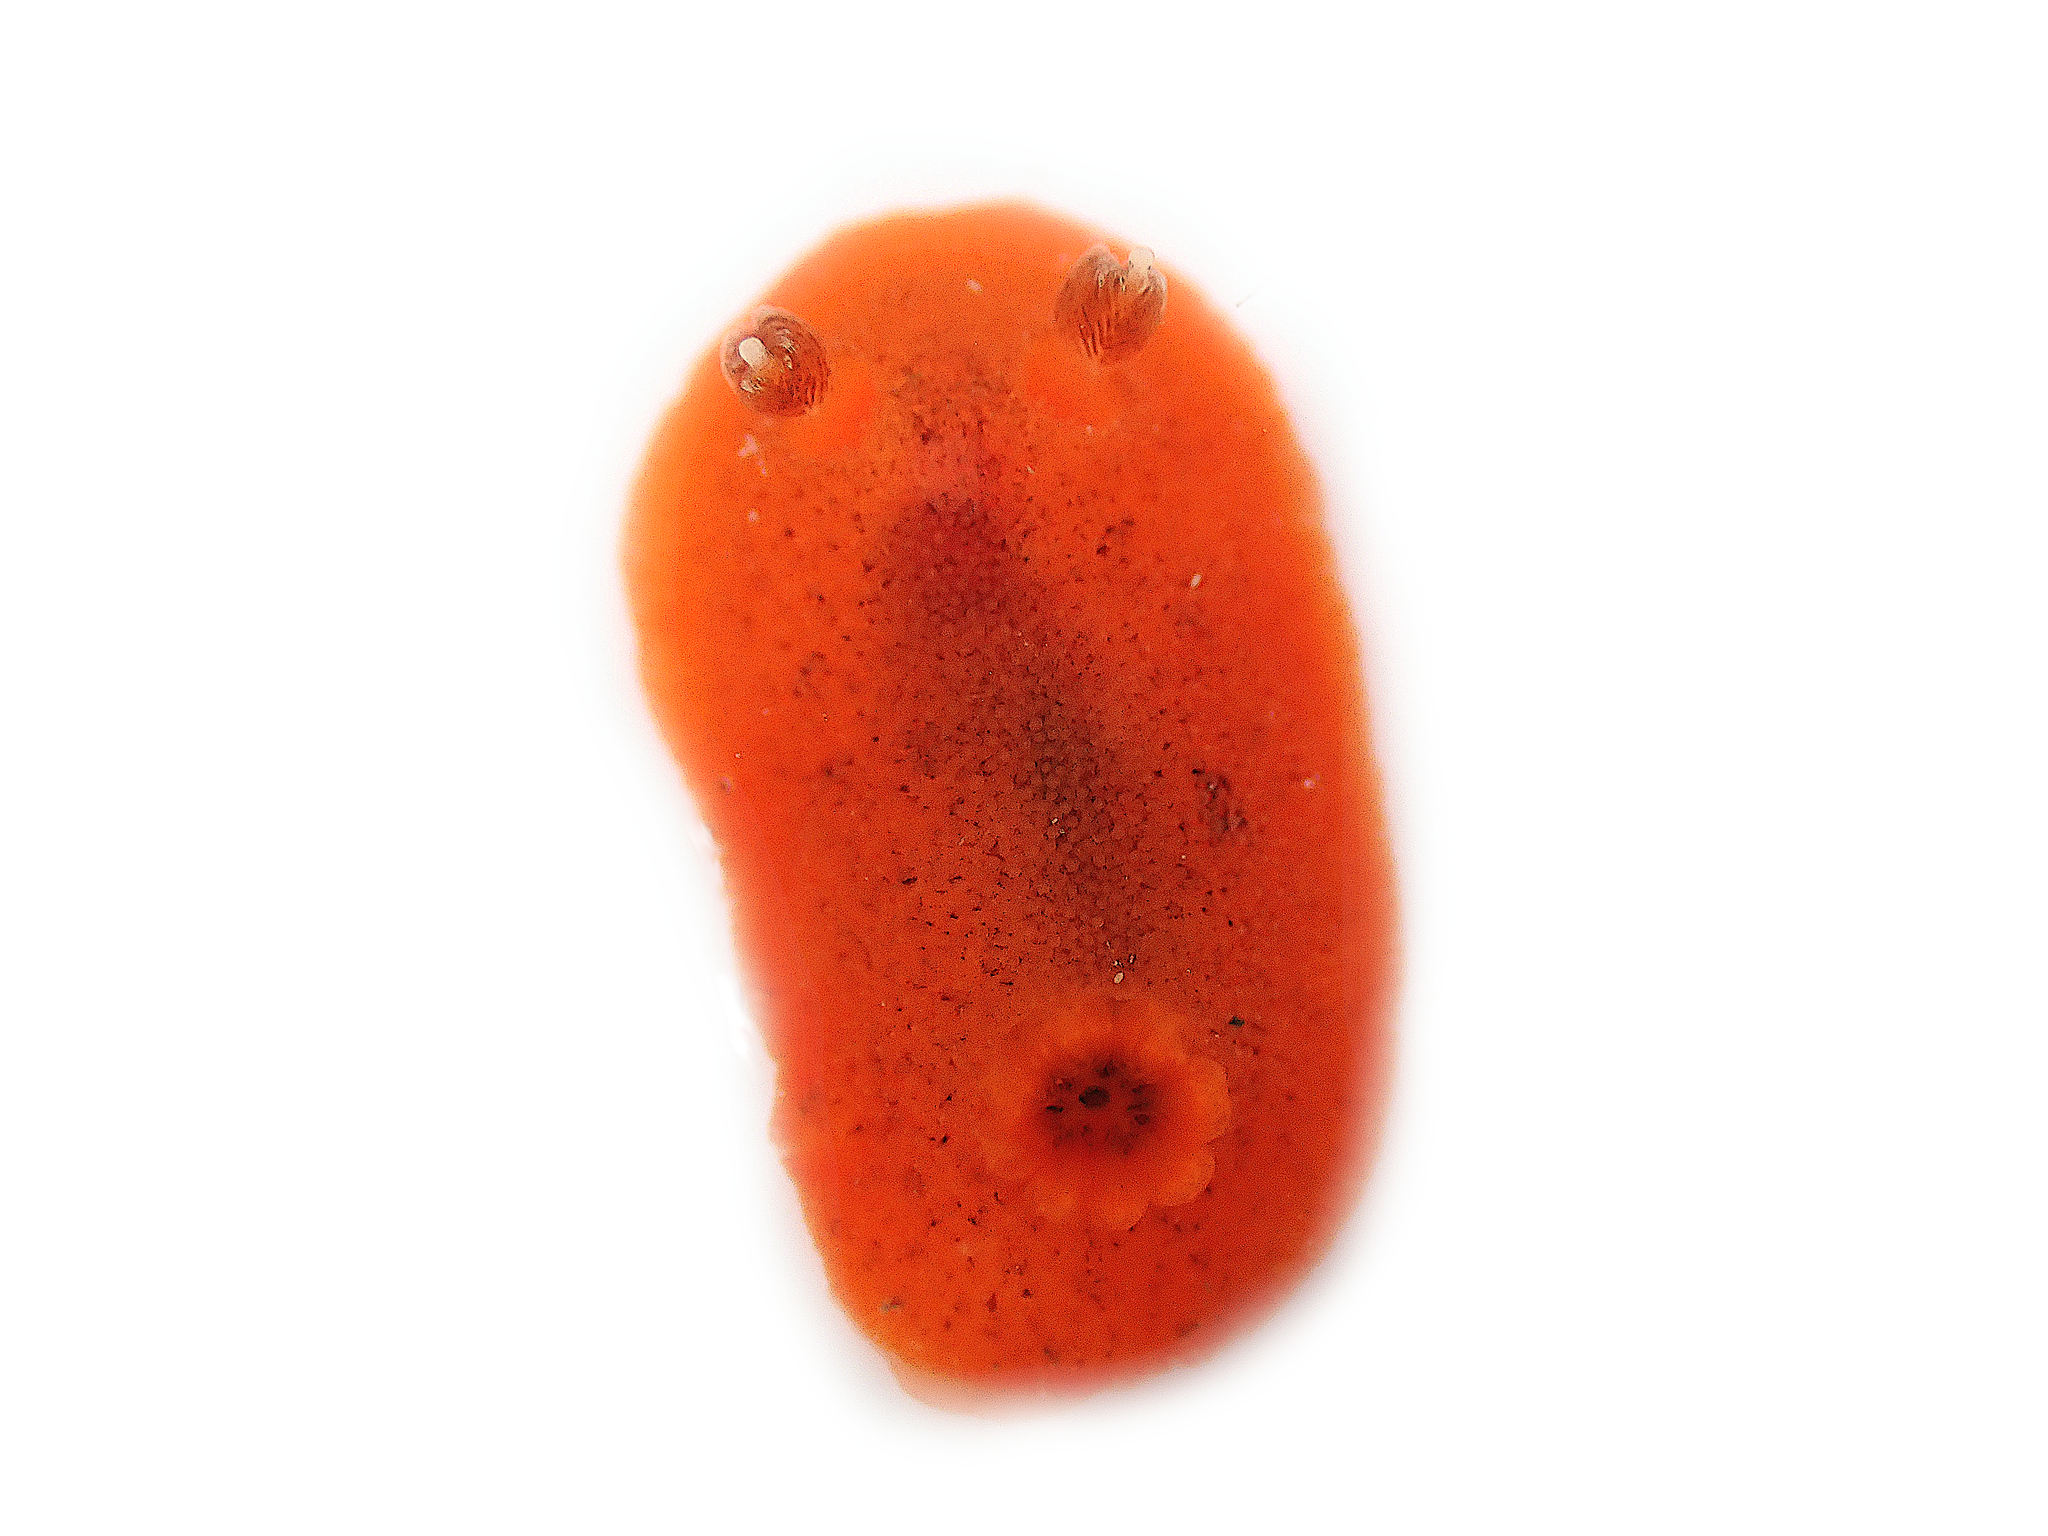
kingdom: Animalia
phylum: Mollusca
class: Gastropoda
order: Nudibranchia
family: Discodorididae
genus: Rostanga
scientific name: Rostanga muscula
